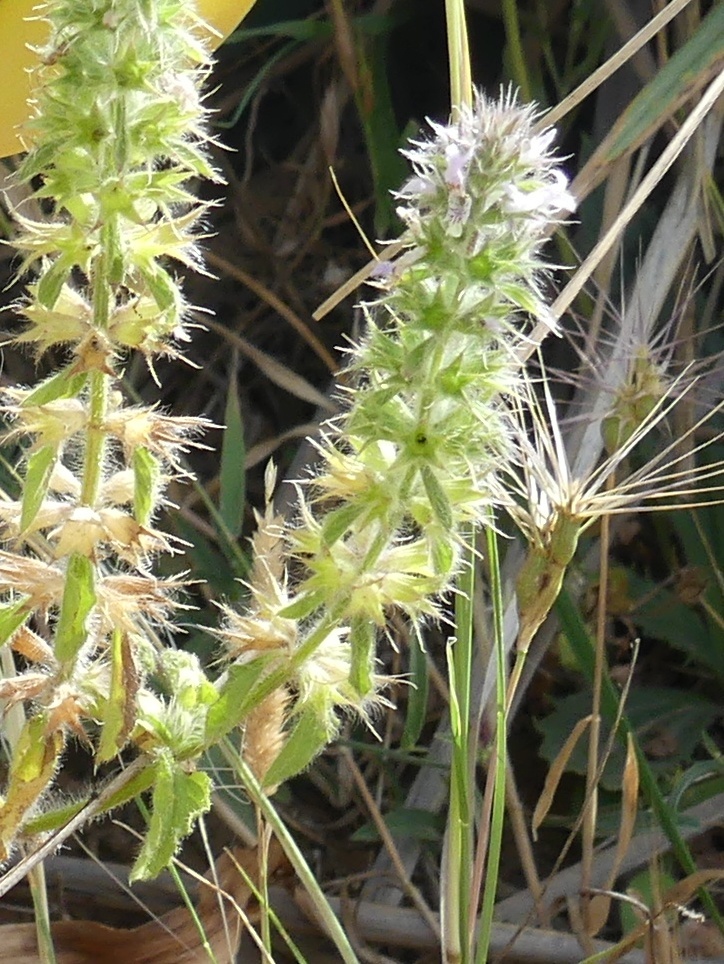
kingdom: Plantae
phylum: Tracheophyta
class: Magnoliopsida
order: Lamiales
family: Lamiaceae
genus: Stachys
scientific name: Stachys ocymastrum
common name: Italian hedgenettle
